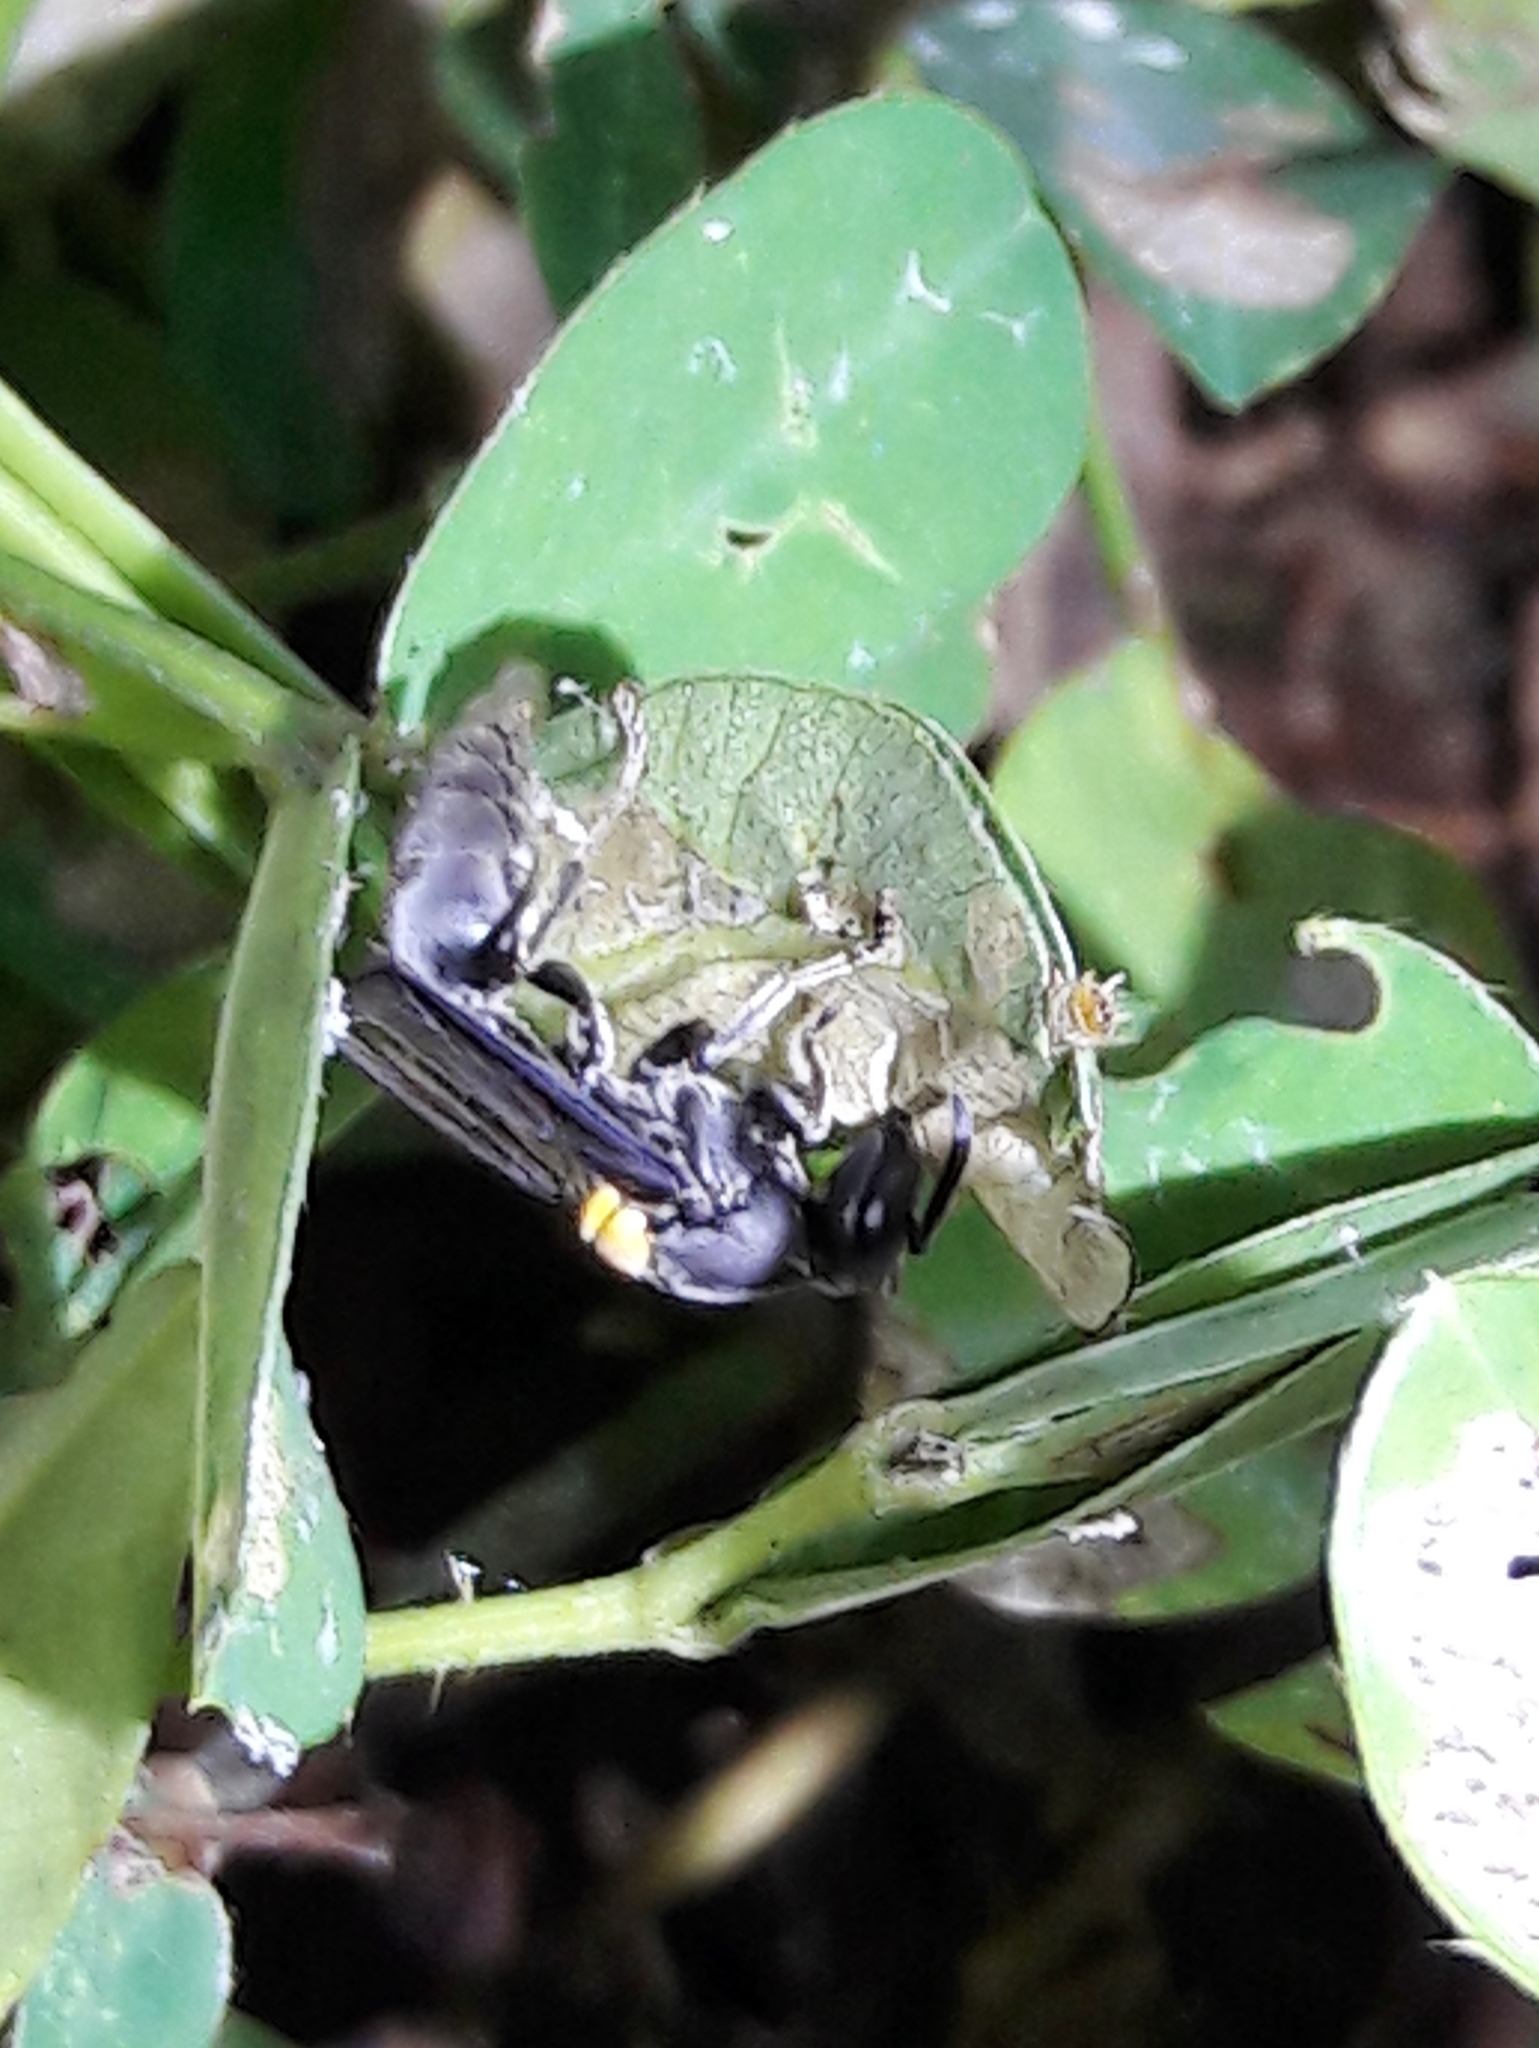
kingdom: Animalia
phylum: Arthropoda
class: Insecta
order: Hymenoptera
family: Eumenidae
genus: Polybia
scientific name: Polybia jurinei
